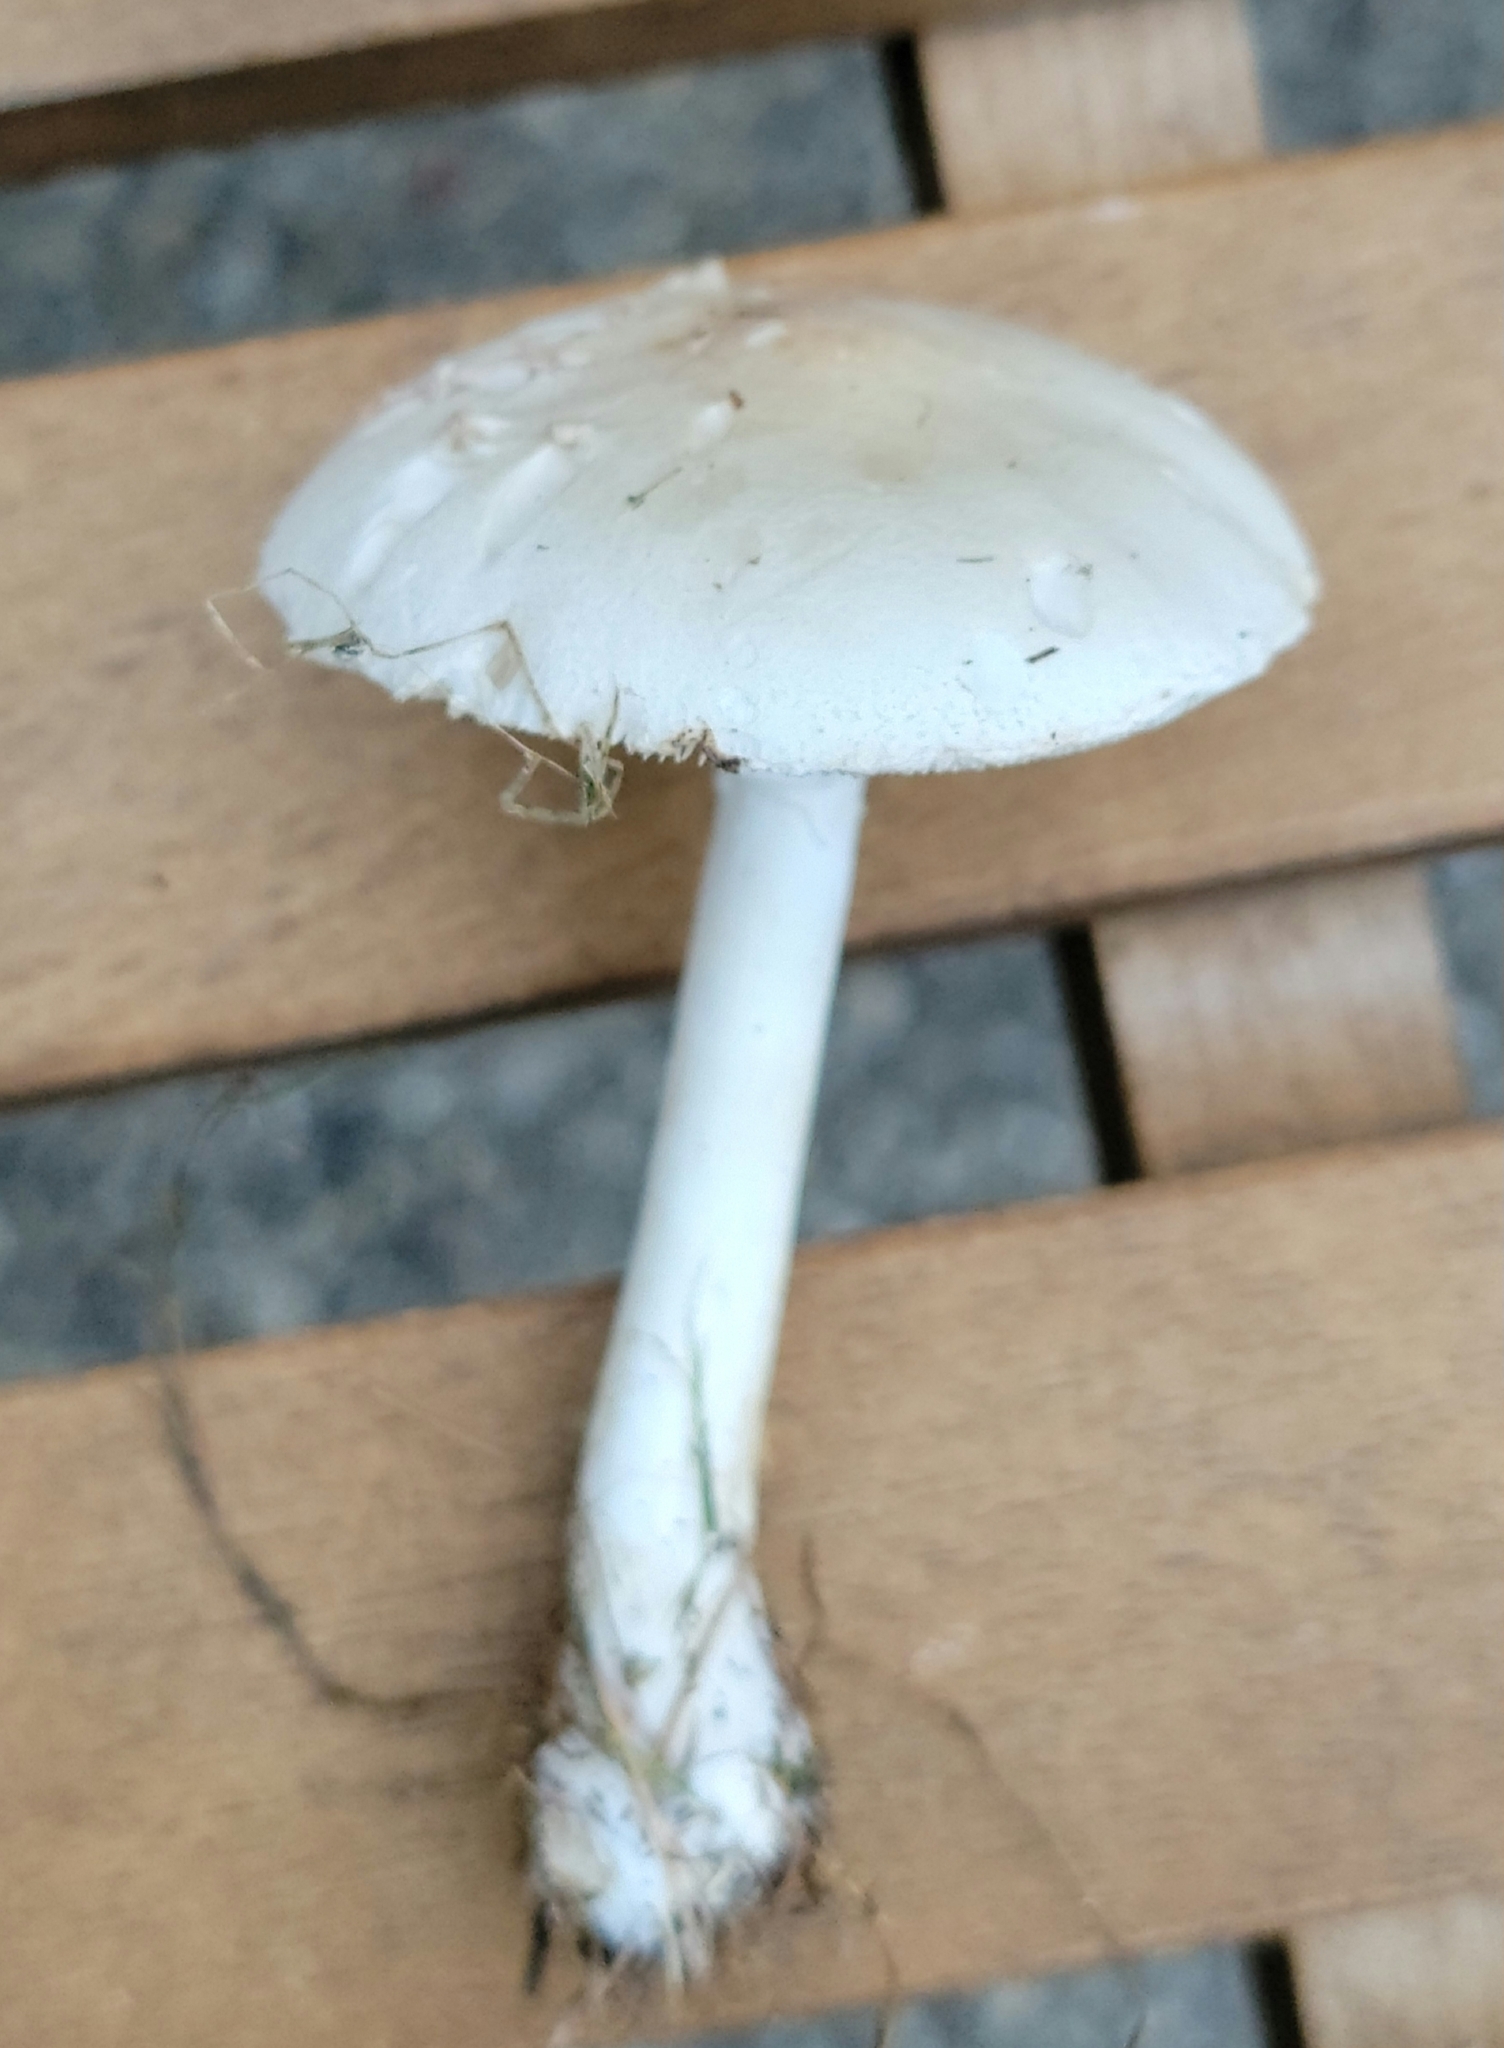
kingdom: Fungi
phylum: Basidiomycota
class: Agaricomycetes
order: Agaricales
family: Agaricaceae
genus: Leucoagaricus
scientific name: Leucoagaricus leucothites
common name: White dapperling
